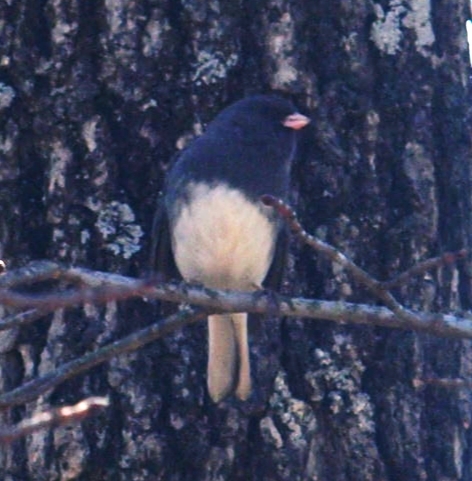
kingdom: Animalia
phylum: Chordata
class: Aves
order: Passeriformes
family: Passerellidae
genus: Junco
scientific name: Junco hyemalis
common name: Dark-eyed junco
